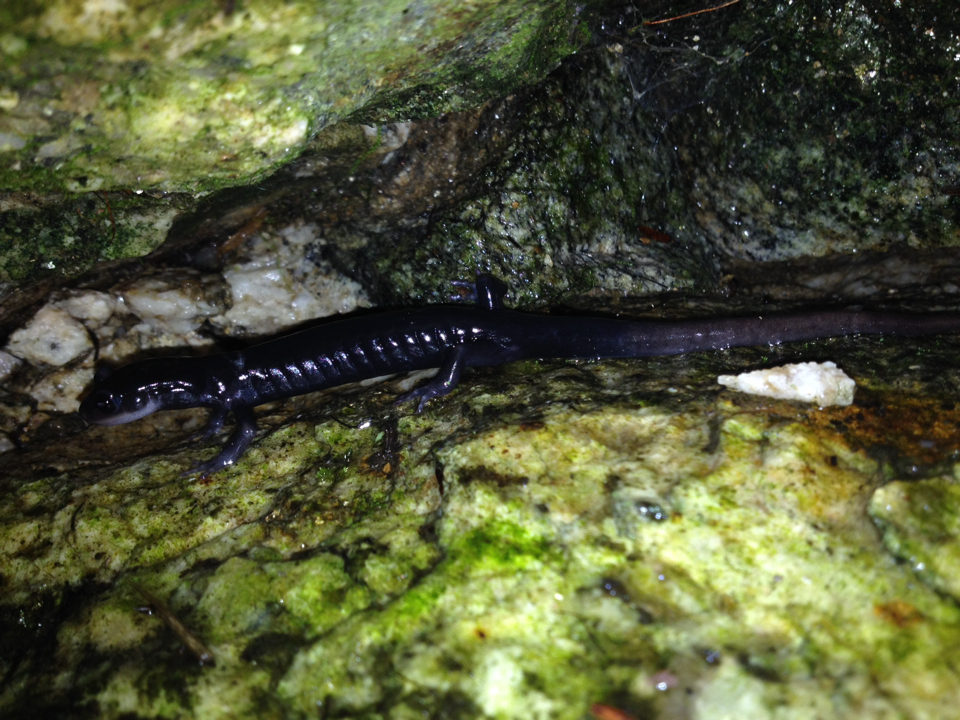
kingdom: Animalia
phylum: Chordata
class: Amphibia
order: Caudata
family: Plethodontidae
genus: Plethodon
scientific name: Plethodon teyahalee
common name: Southern appalachian salamander
